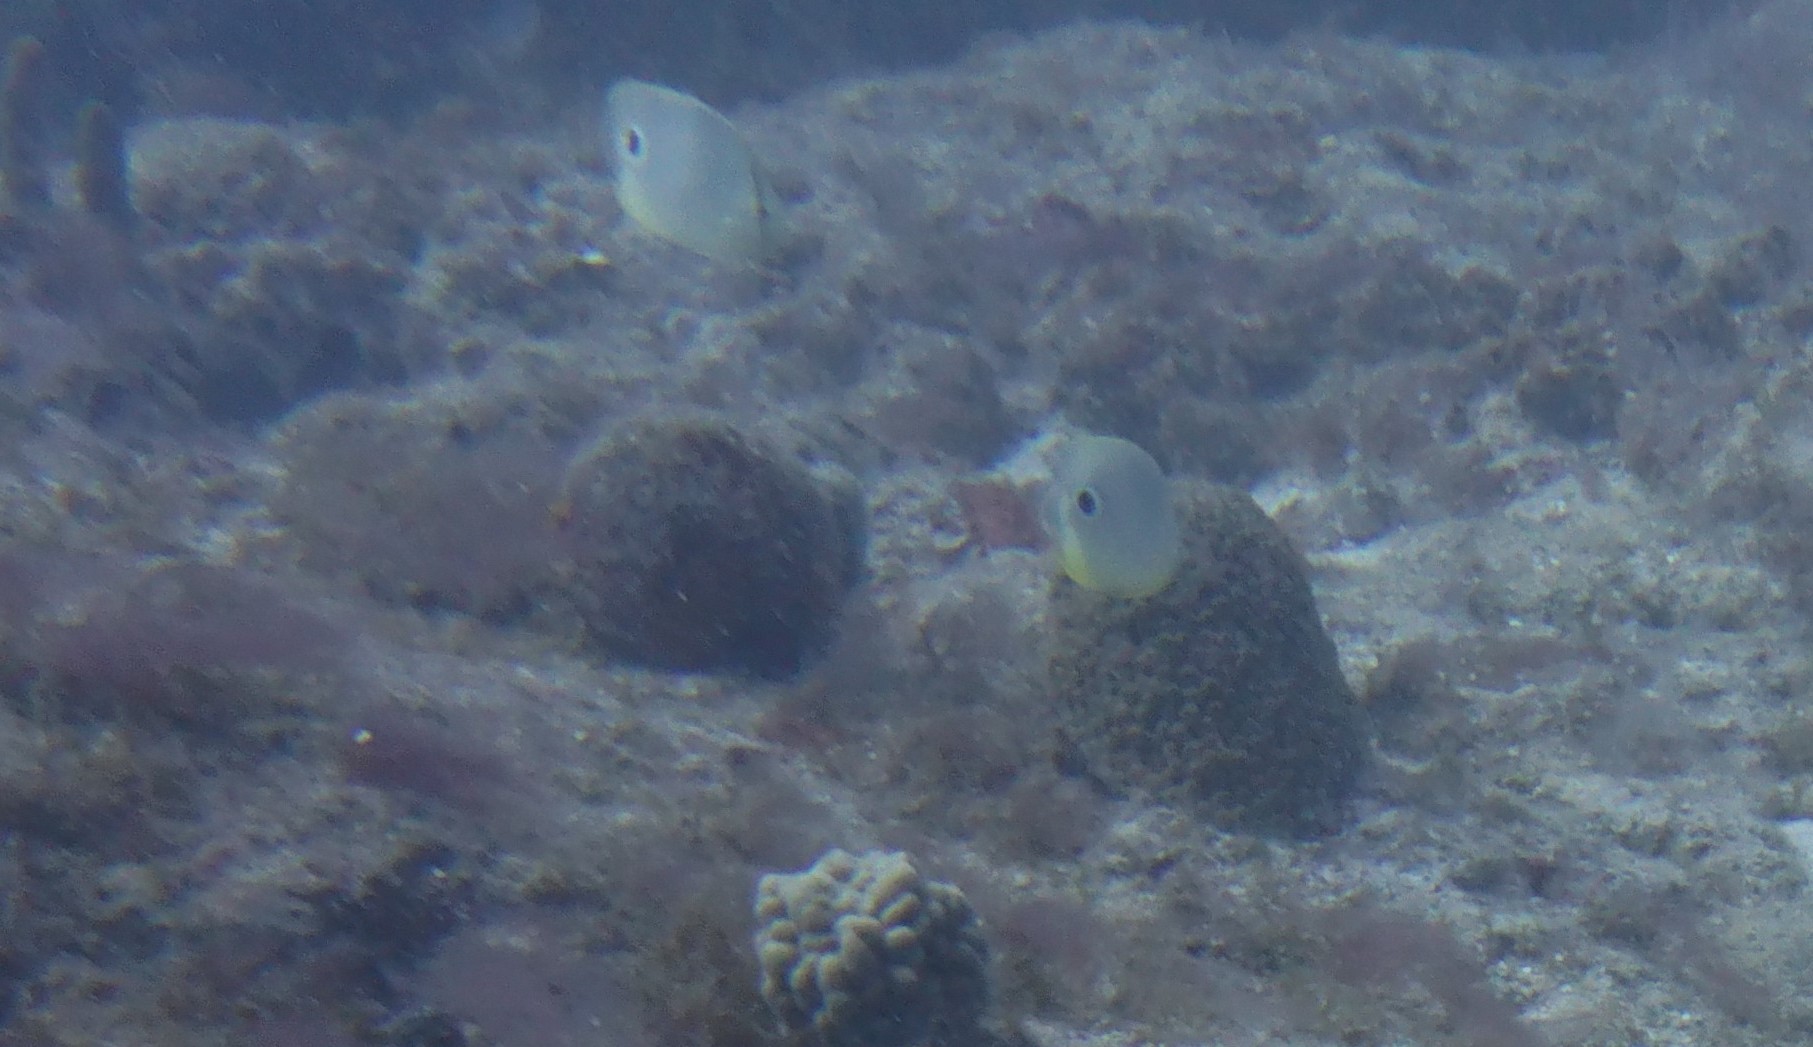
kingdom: Animalia
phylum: Chordata
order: Perciformes
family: Chaetodontidae
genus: Chaetodon
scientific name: Chaetodon capistratus
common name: Kete
